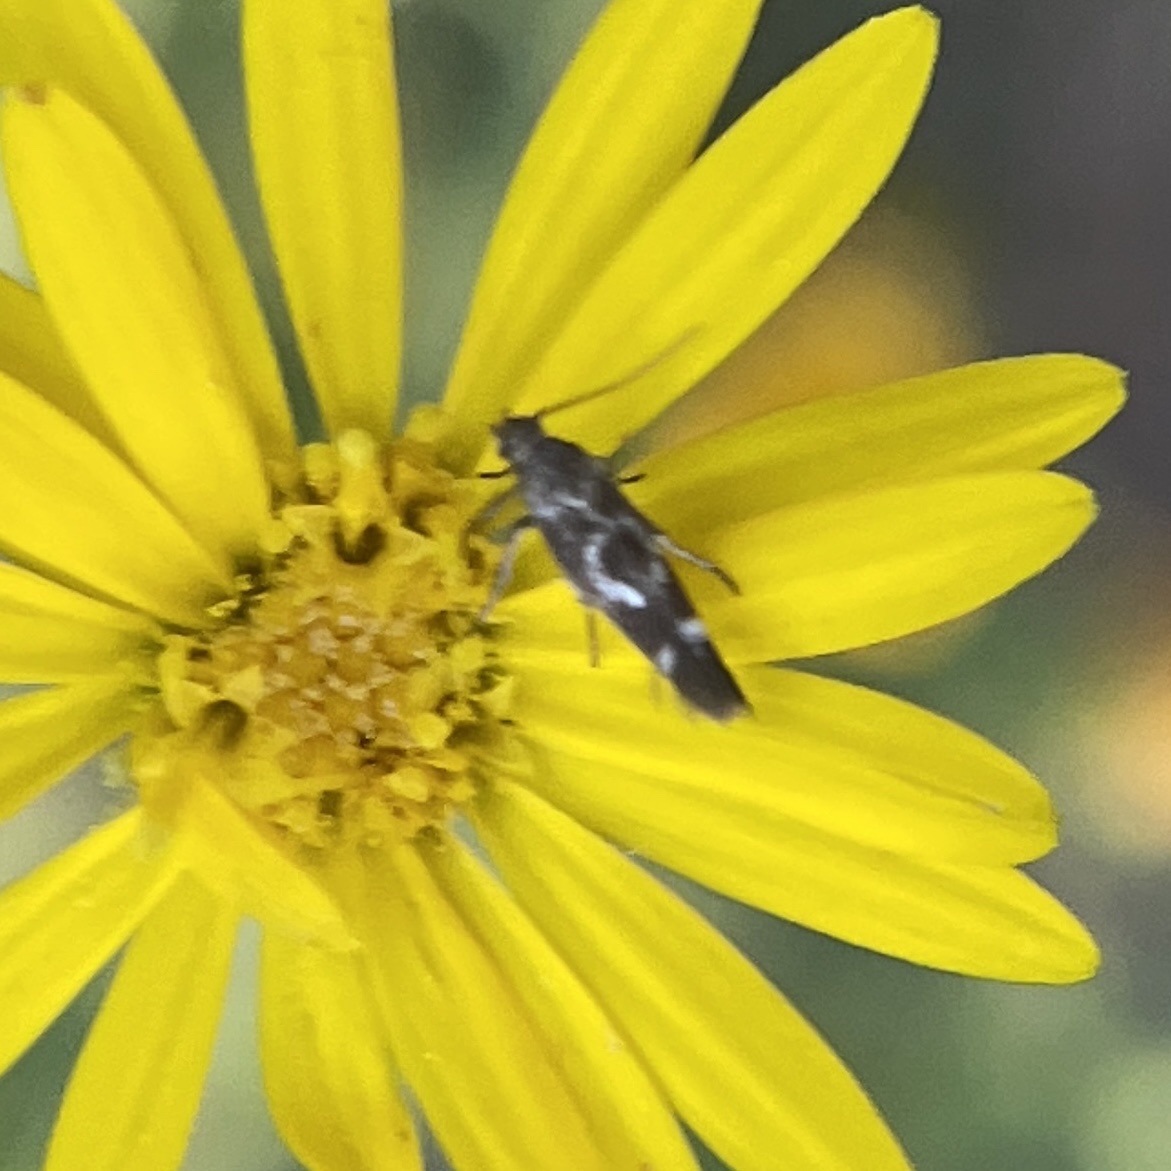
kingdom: Animalia
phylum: Arthropoda
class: Insecta
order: Lepidoptera
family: Scythrididae
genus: Scythris
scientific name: Scythris trivinctella
